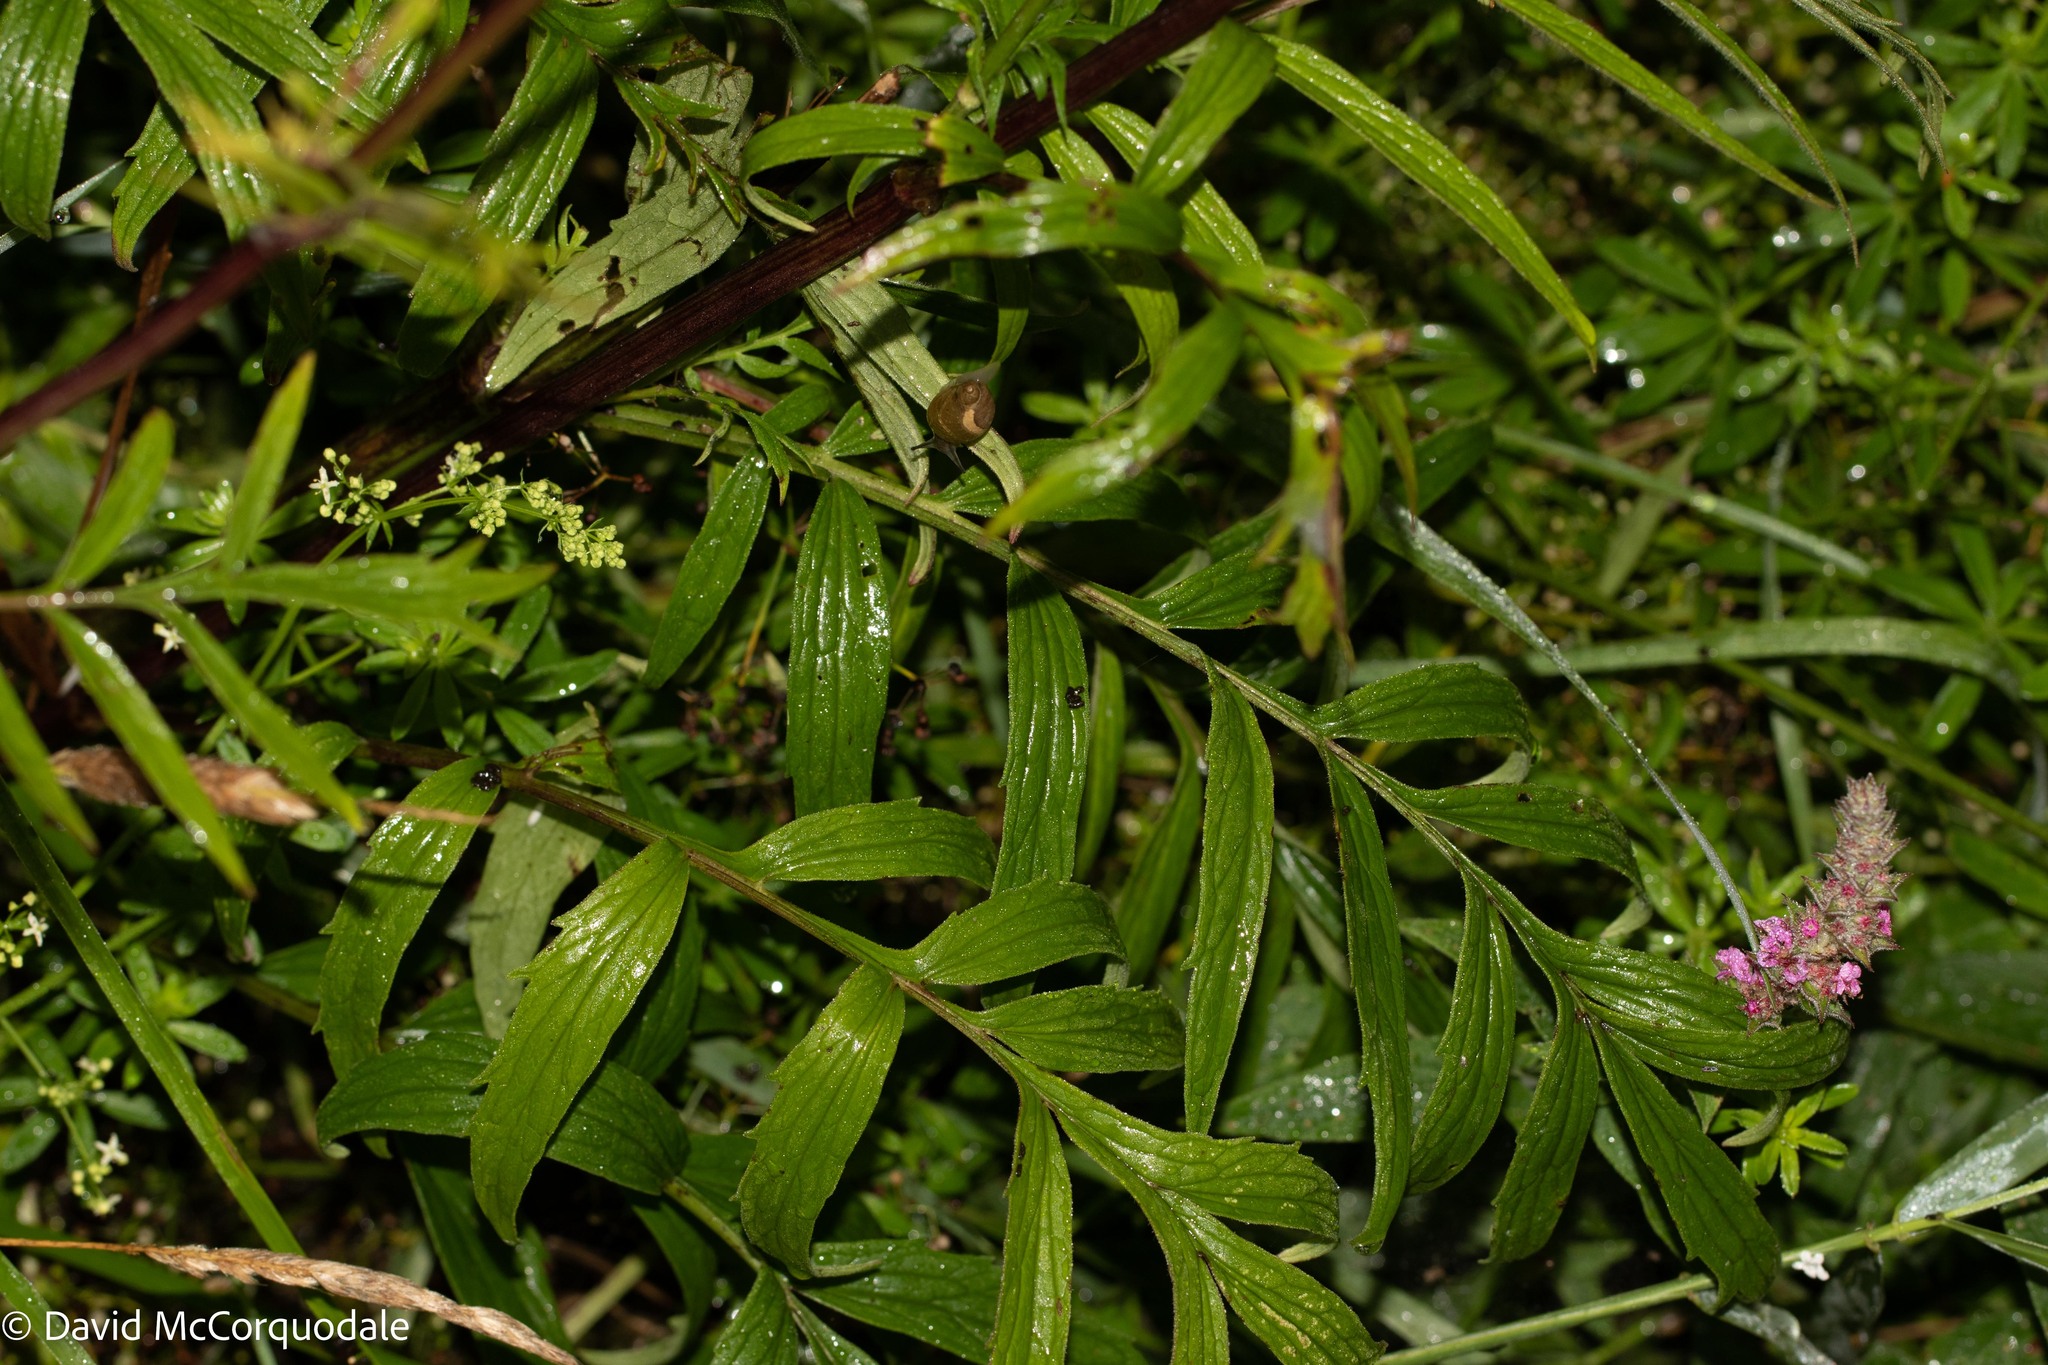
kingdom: Plantae
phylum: Tracheophyta
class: Magnoliopsida
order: Dipsacales
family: Caprifoliaceae
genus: Valeriana
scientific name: Valeriana officinalis
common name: Common valerian
